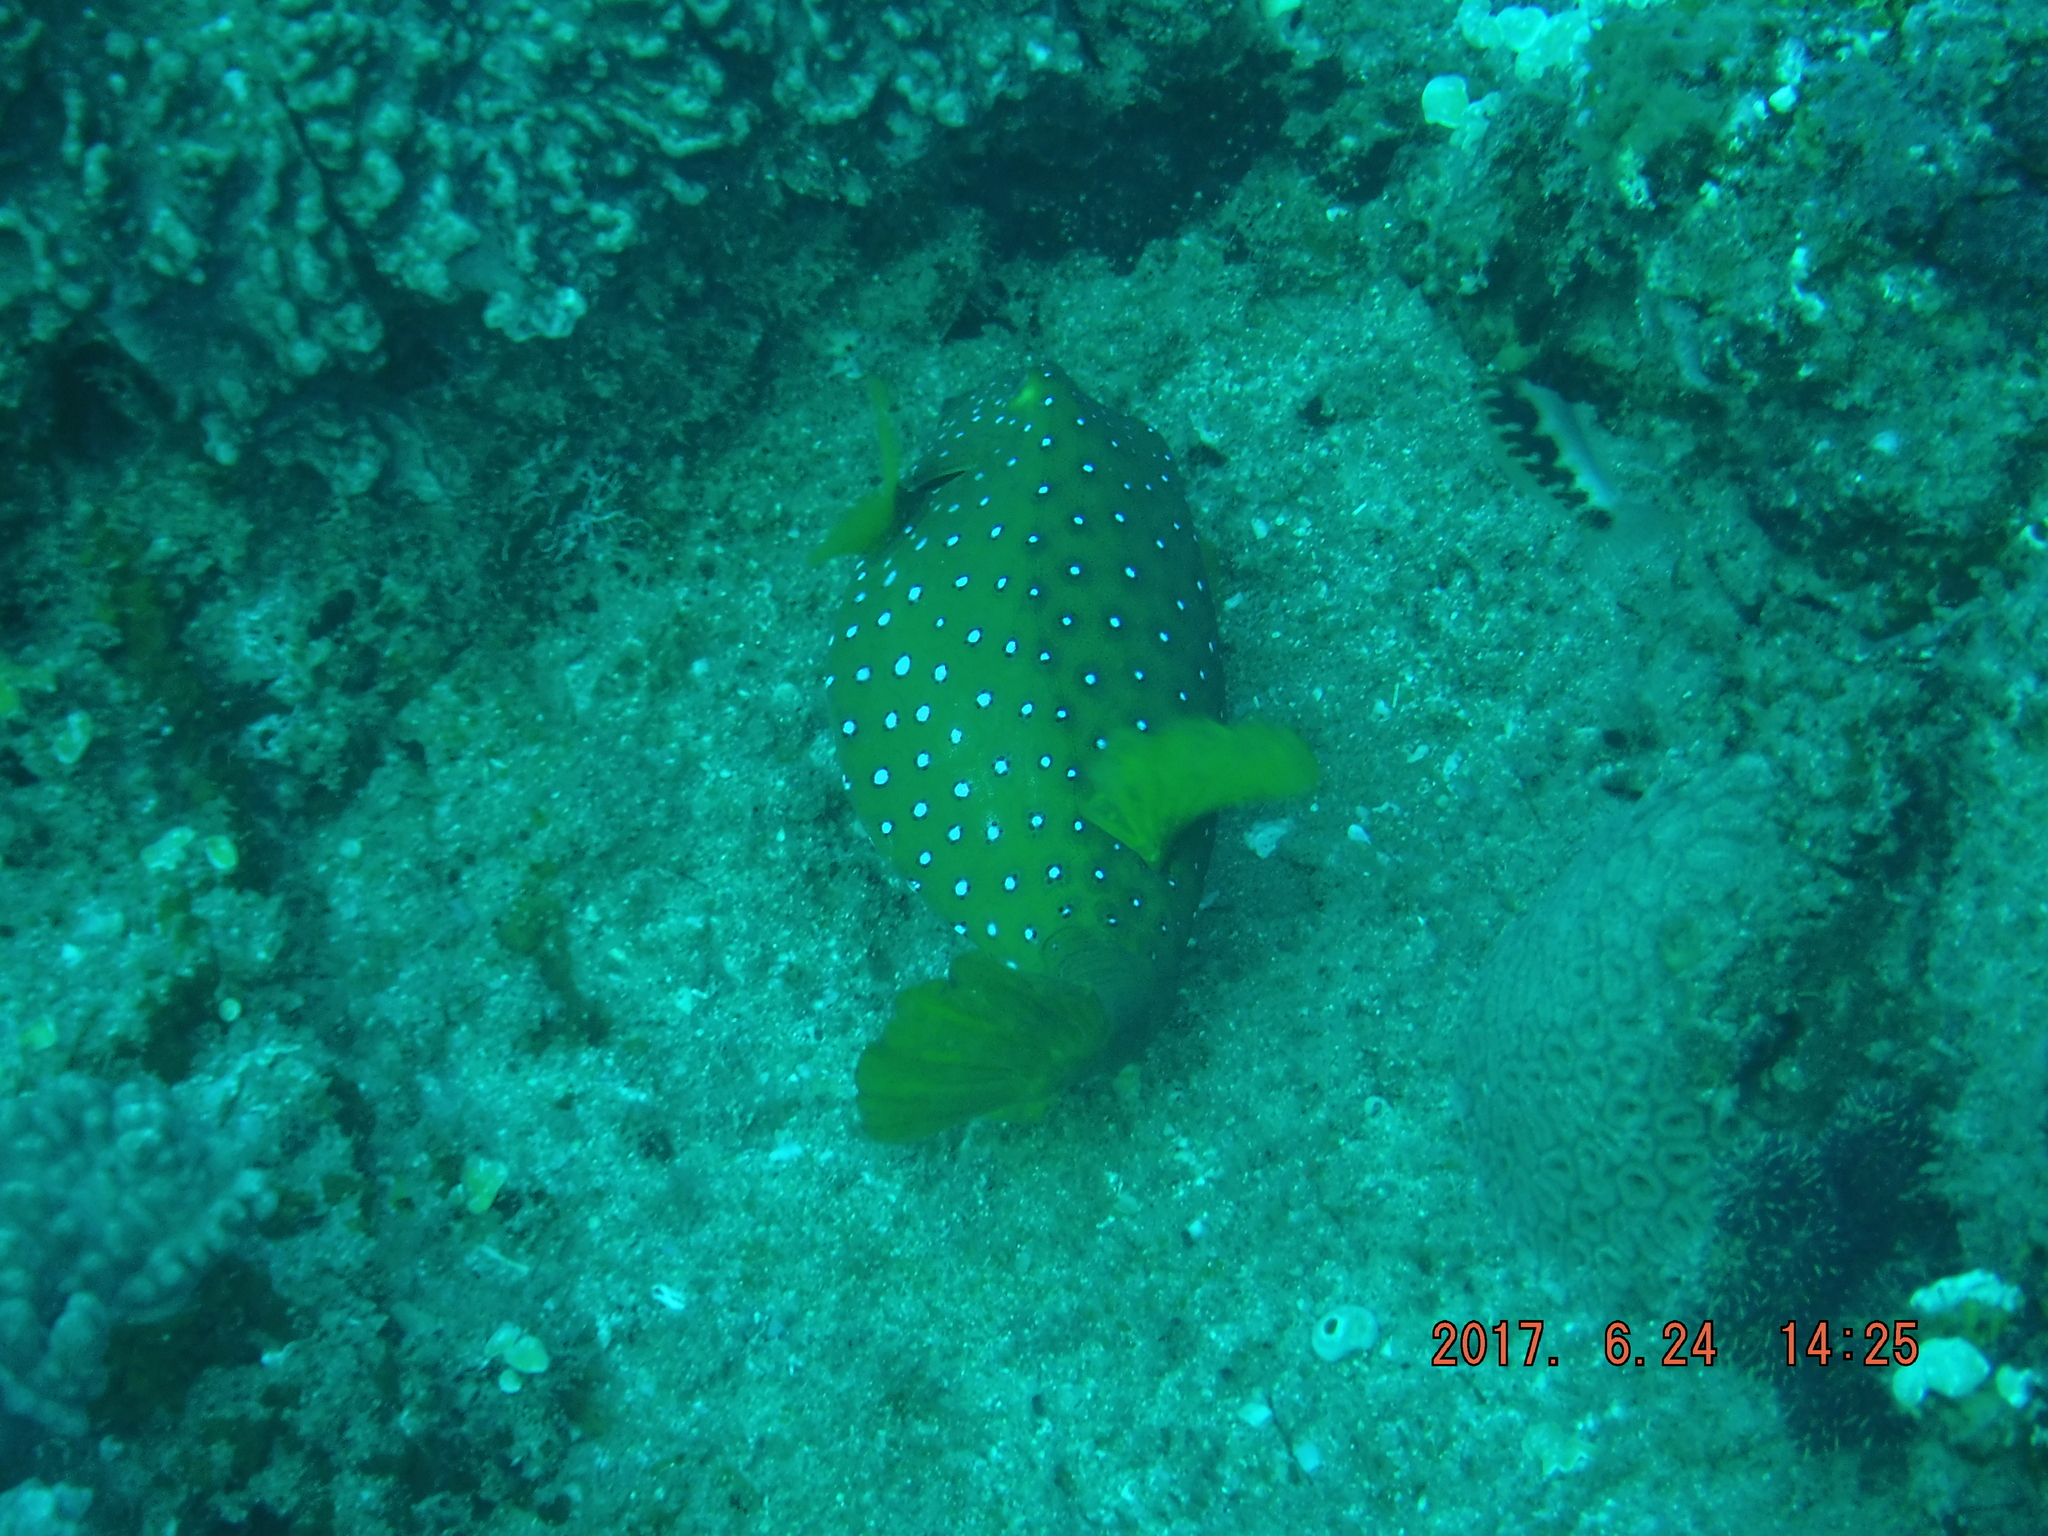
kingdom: Animalia
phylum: Chordata
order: Tetraodontiformes
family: Ostraciidae
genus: Ostracion
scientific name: Ostracion cubicus
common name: Cube trunkfish
